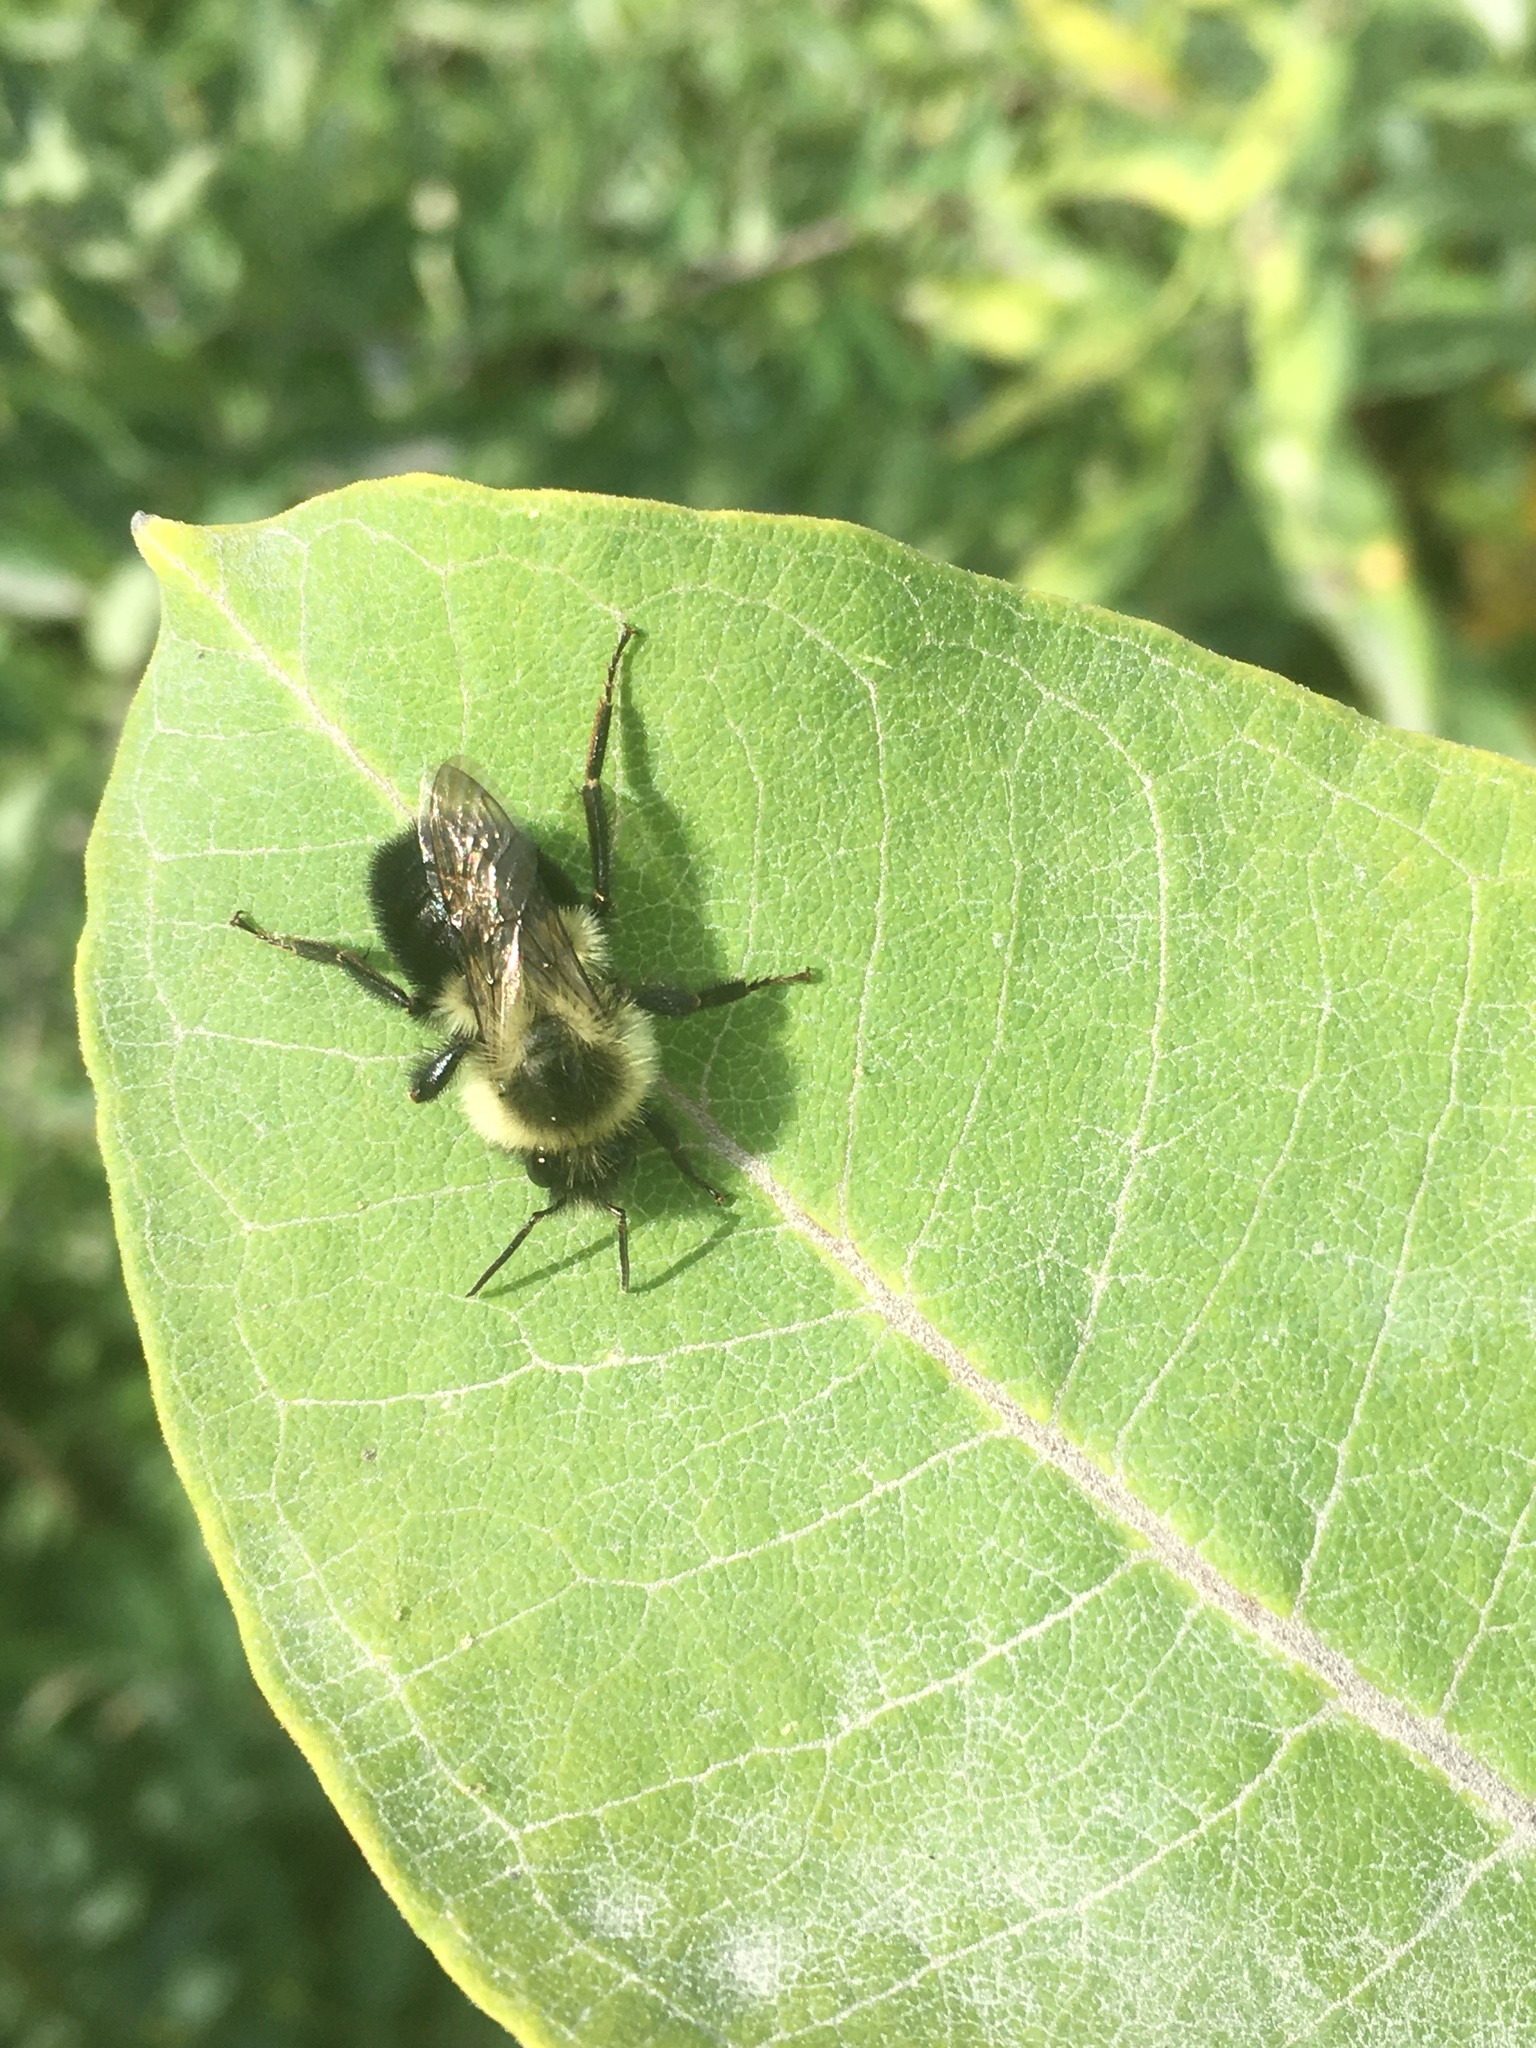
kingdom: Animalia
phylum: Arthropoda
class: Insecta
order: Hymenoptera
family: Apidae
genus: Bombus
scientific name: Bombus impatiens
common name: Common eastern bumble bee
